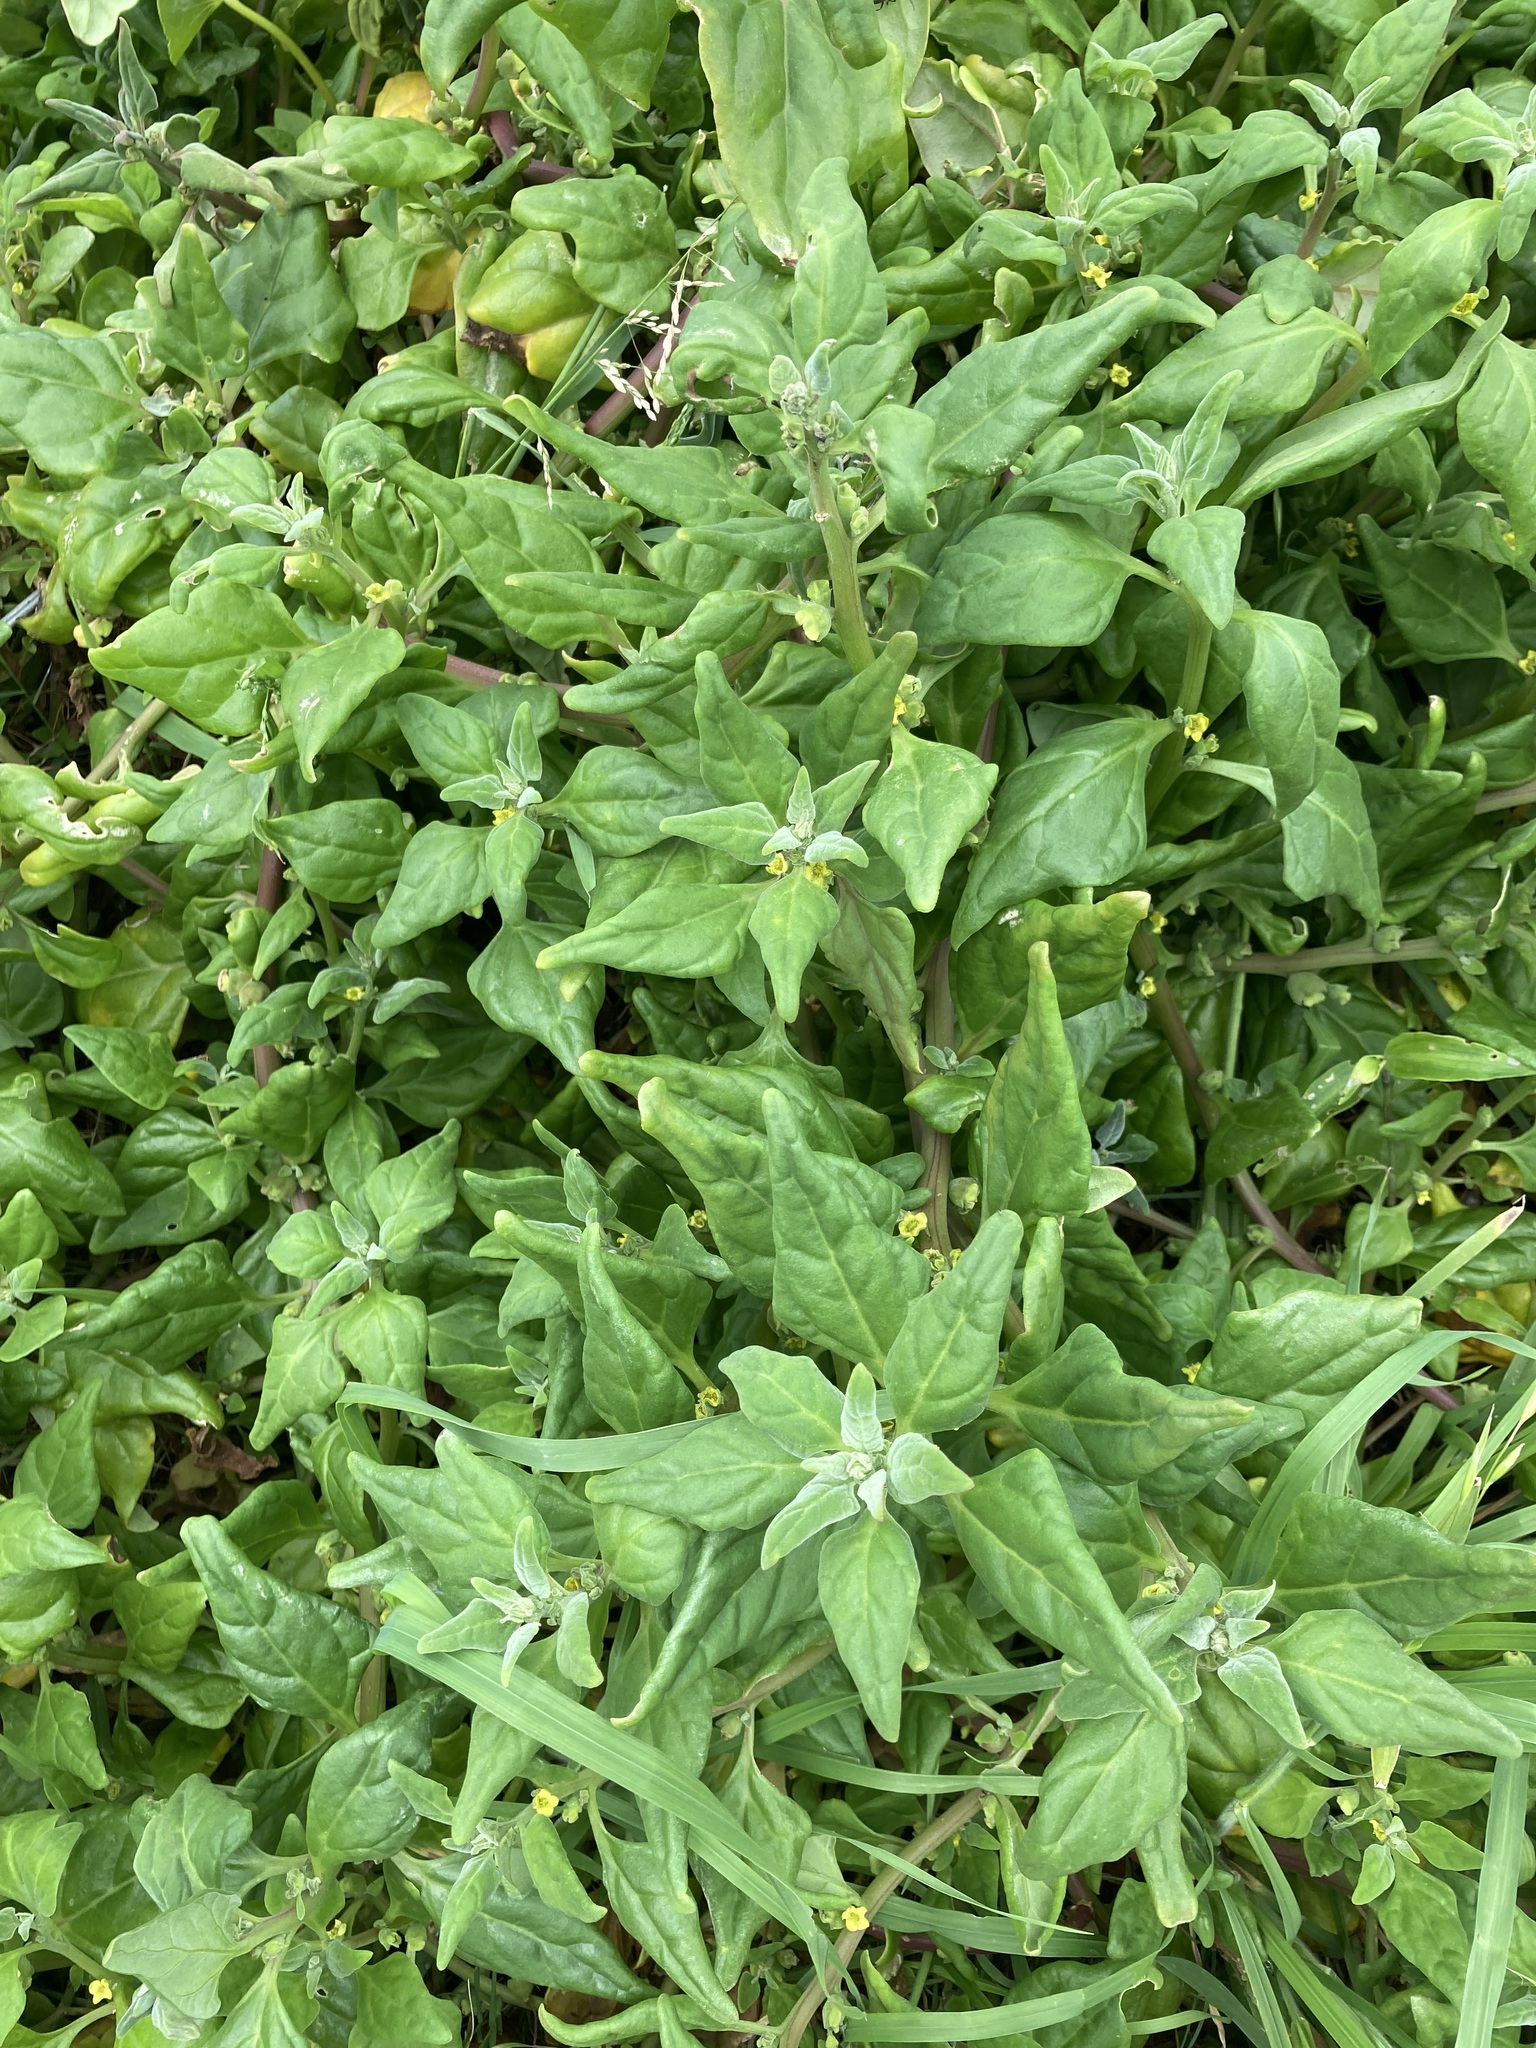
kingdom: Plantae
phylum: Tracheophyta
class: Magnoliopsida
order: Caryophyllales
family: Aizoaceae
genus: Tetragonia
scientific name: Tetragonia tetragonoides
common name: New zealand-spinach
